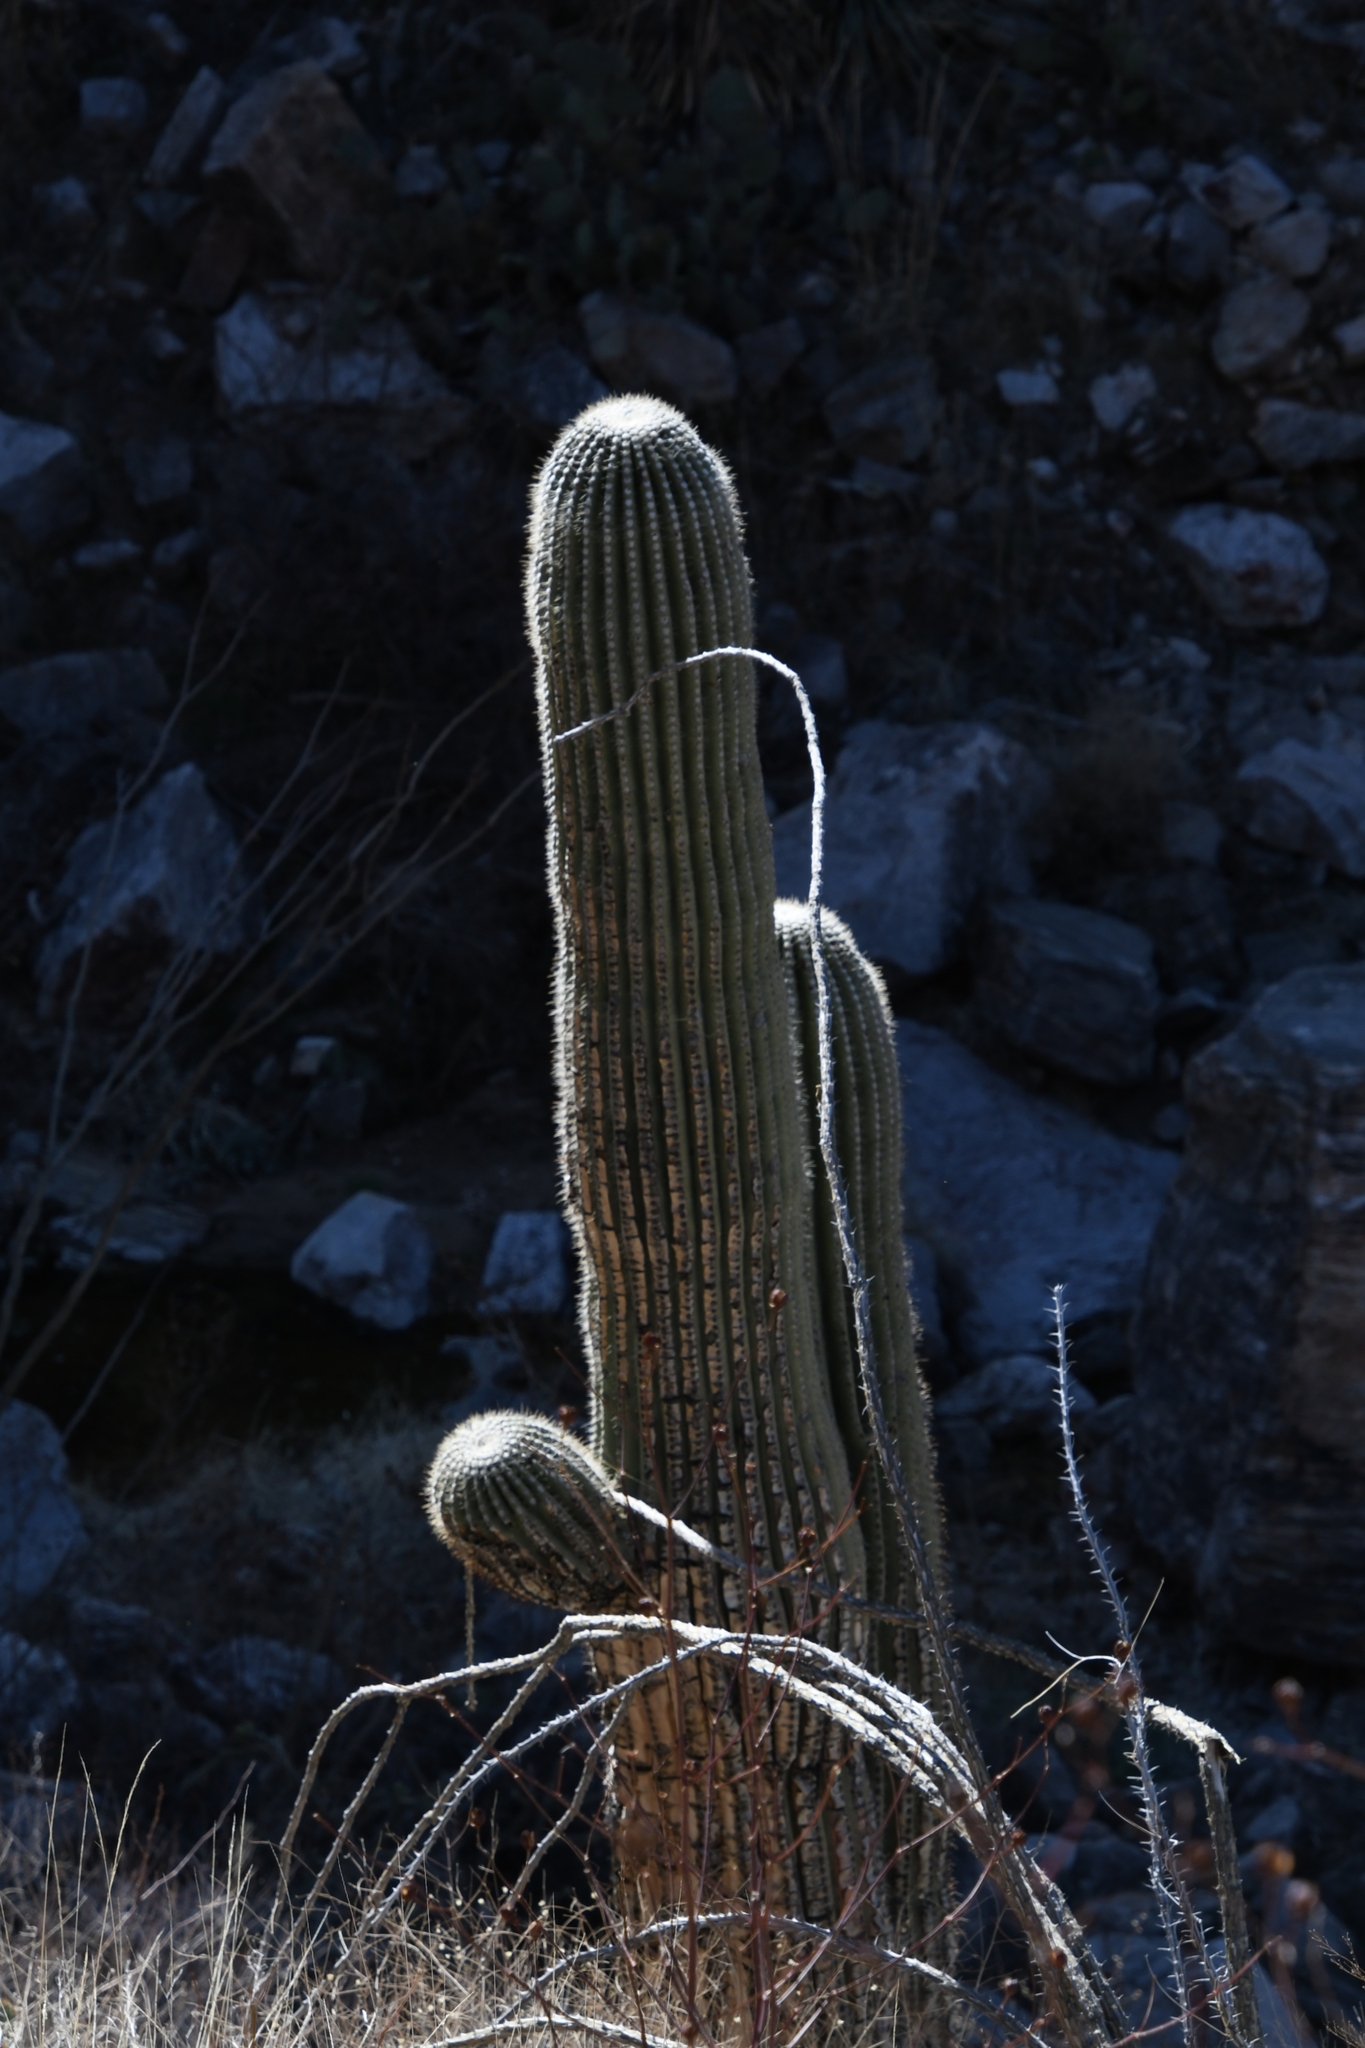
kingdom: Plantae
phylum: Tracheophyta
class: Magnoliopsida
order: Caryophyllales
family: Cactaceae
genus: Carnegiea
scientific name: Carnegiea gigantea
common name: Saguaro
